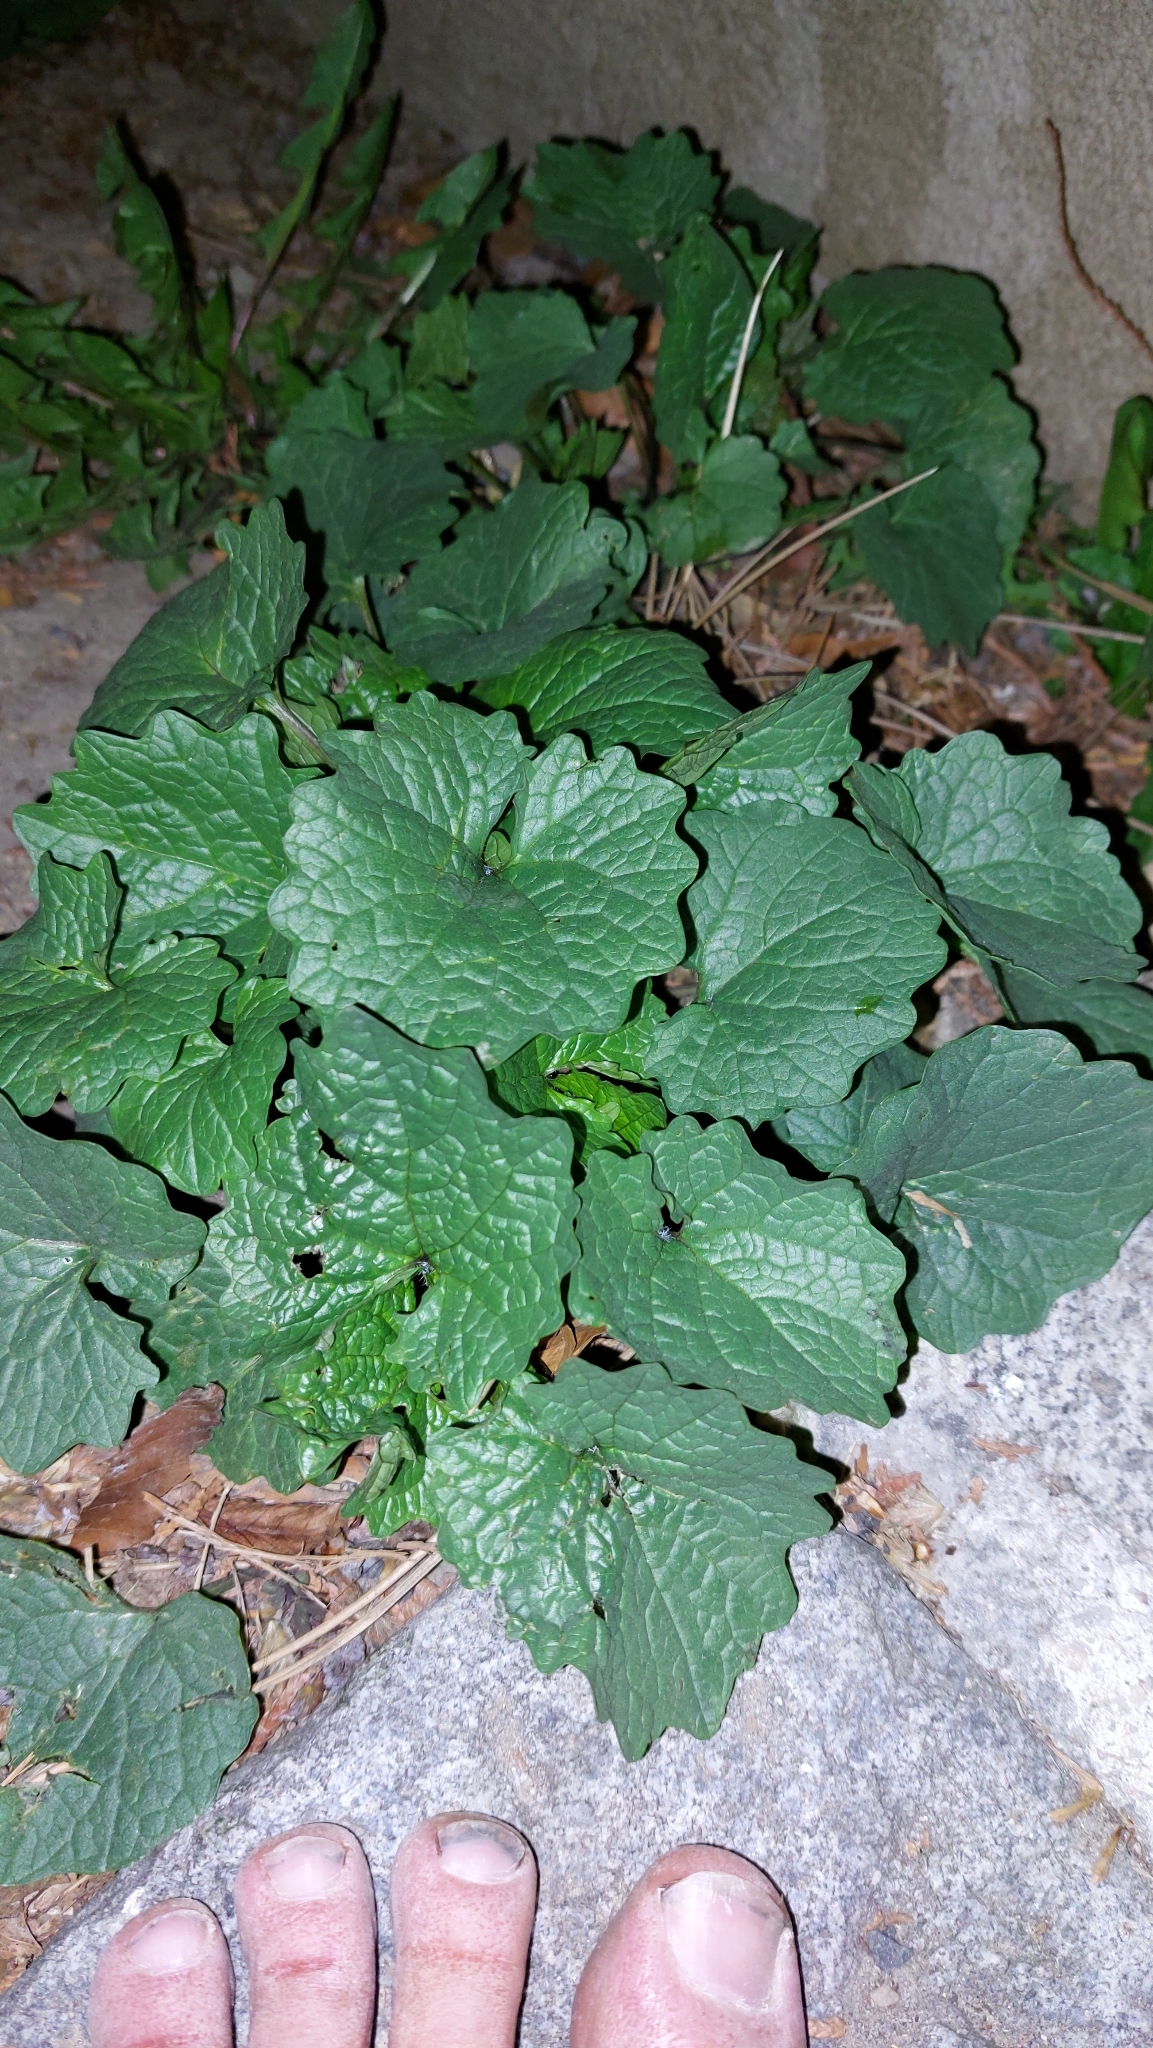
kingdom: Plantae
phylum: Tracheophyta
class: Magnoliopsida
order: Brassicales
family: Brassicaceae
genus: Alliaria
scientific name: Alliaria petiolata
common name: Garlic mustard
